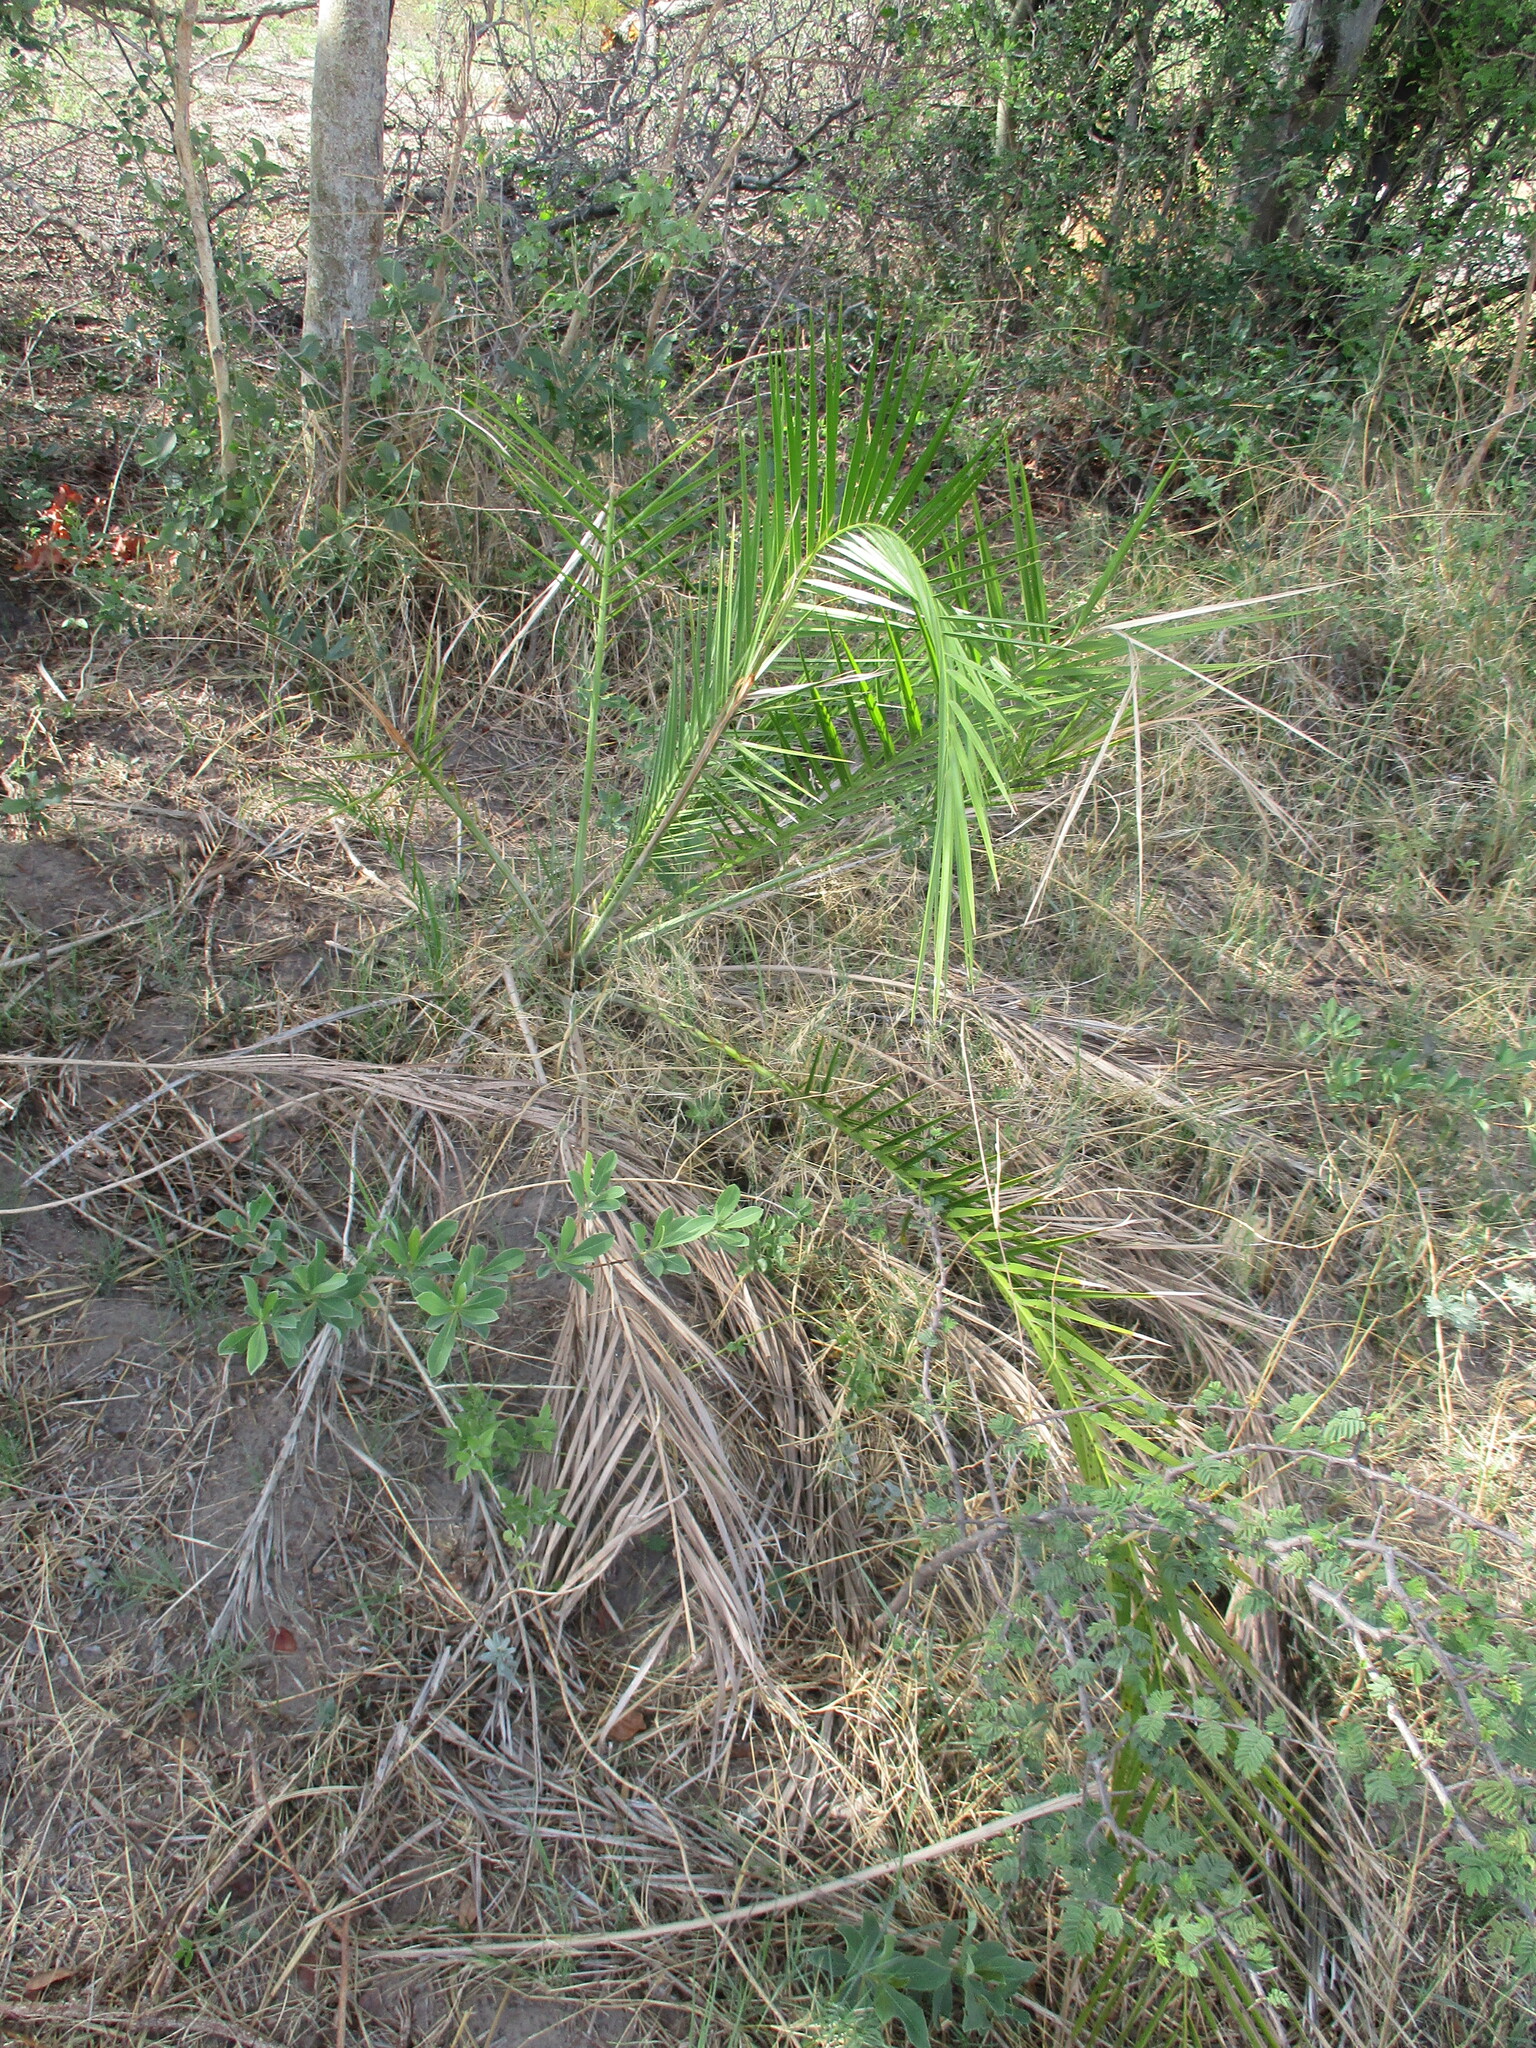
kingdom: Plantae
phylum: Tracheophyta
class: Liliopsida
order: Arecales
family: Arecaceae
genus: Phoenix
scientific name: Phoenix reclinata
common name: Senegal date palm
